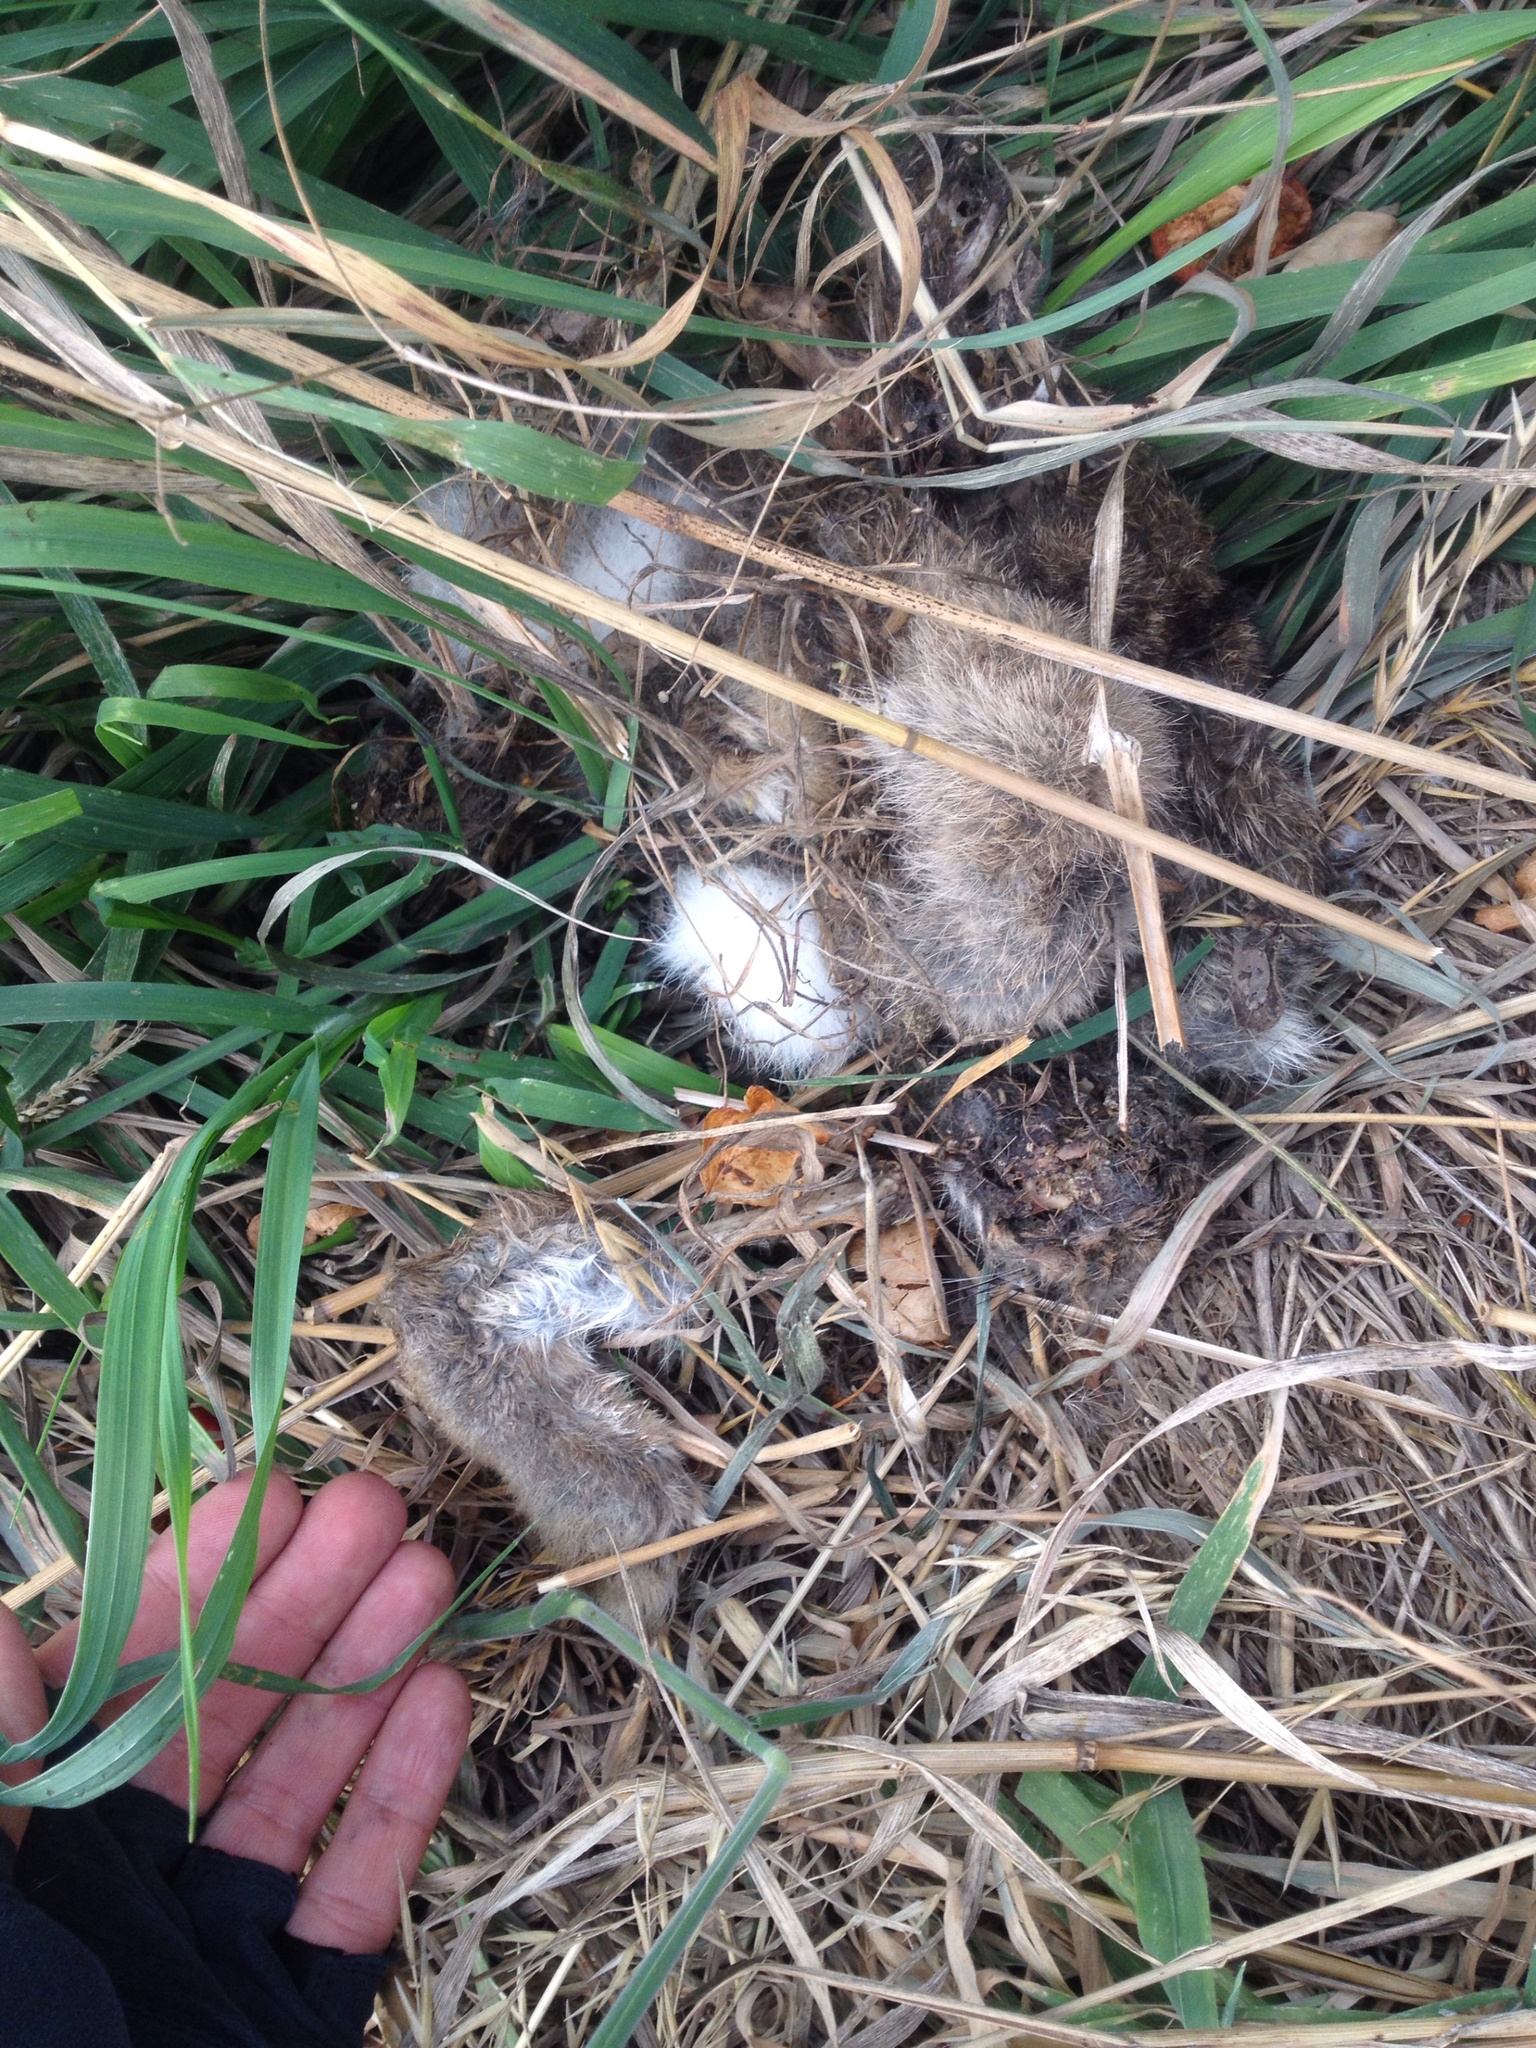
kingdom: Animalia
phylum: Chordata
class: Mammalia
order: Lagomorpha
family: Leporidae
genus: Oryctolagus
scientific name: Oryctolagus cuniculus
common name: European rabbit
